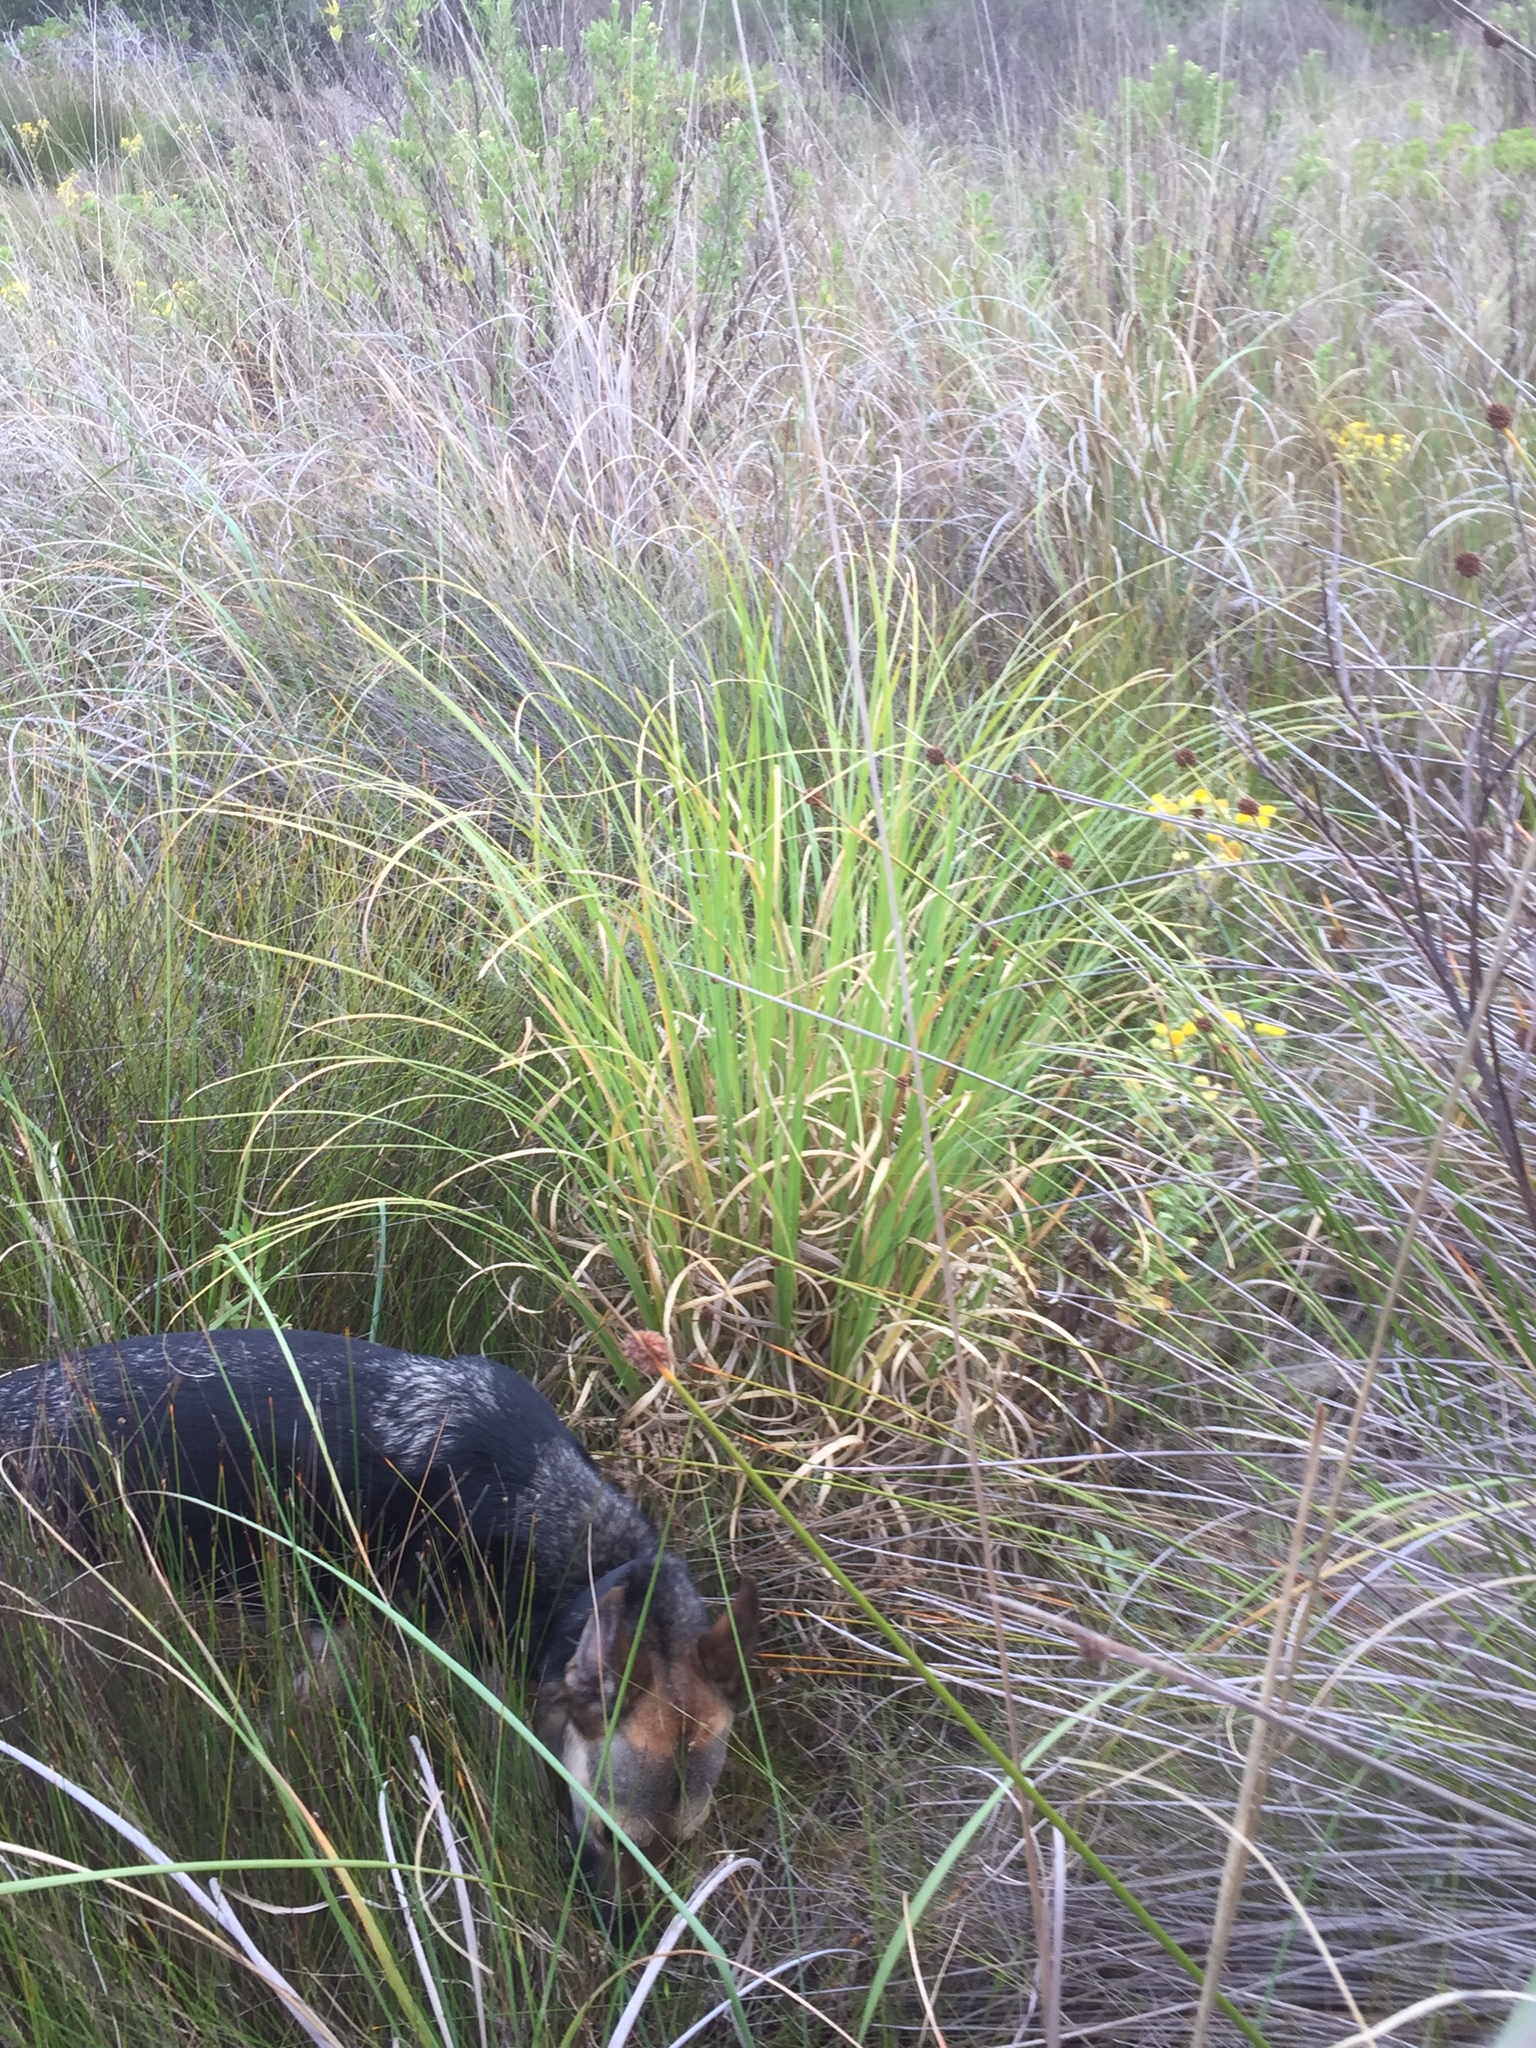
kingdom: Plantae
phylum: Tracheophyta
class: Liliopsida
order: Poales
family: Poaceae
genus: Cortaderia
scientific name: Cortaderia selloana
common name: Uruguayan pampas grass
